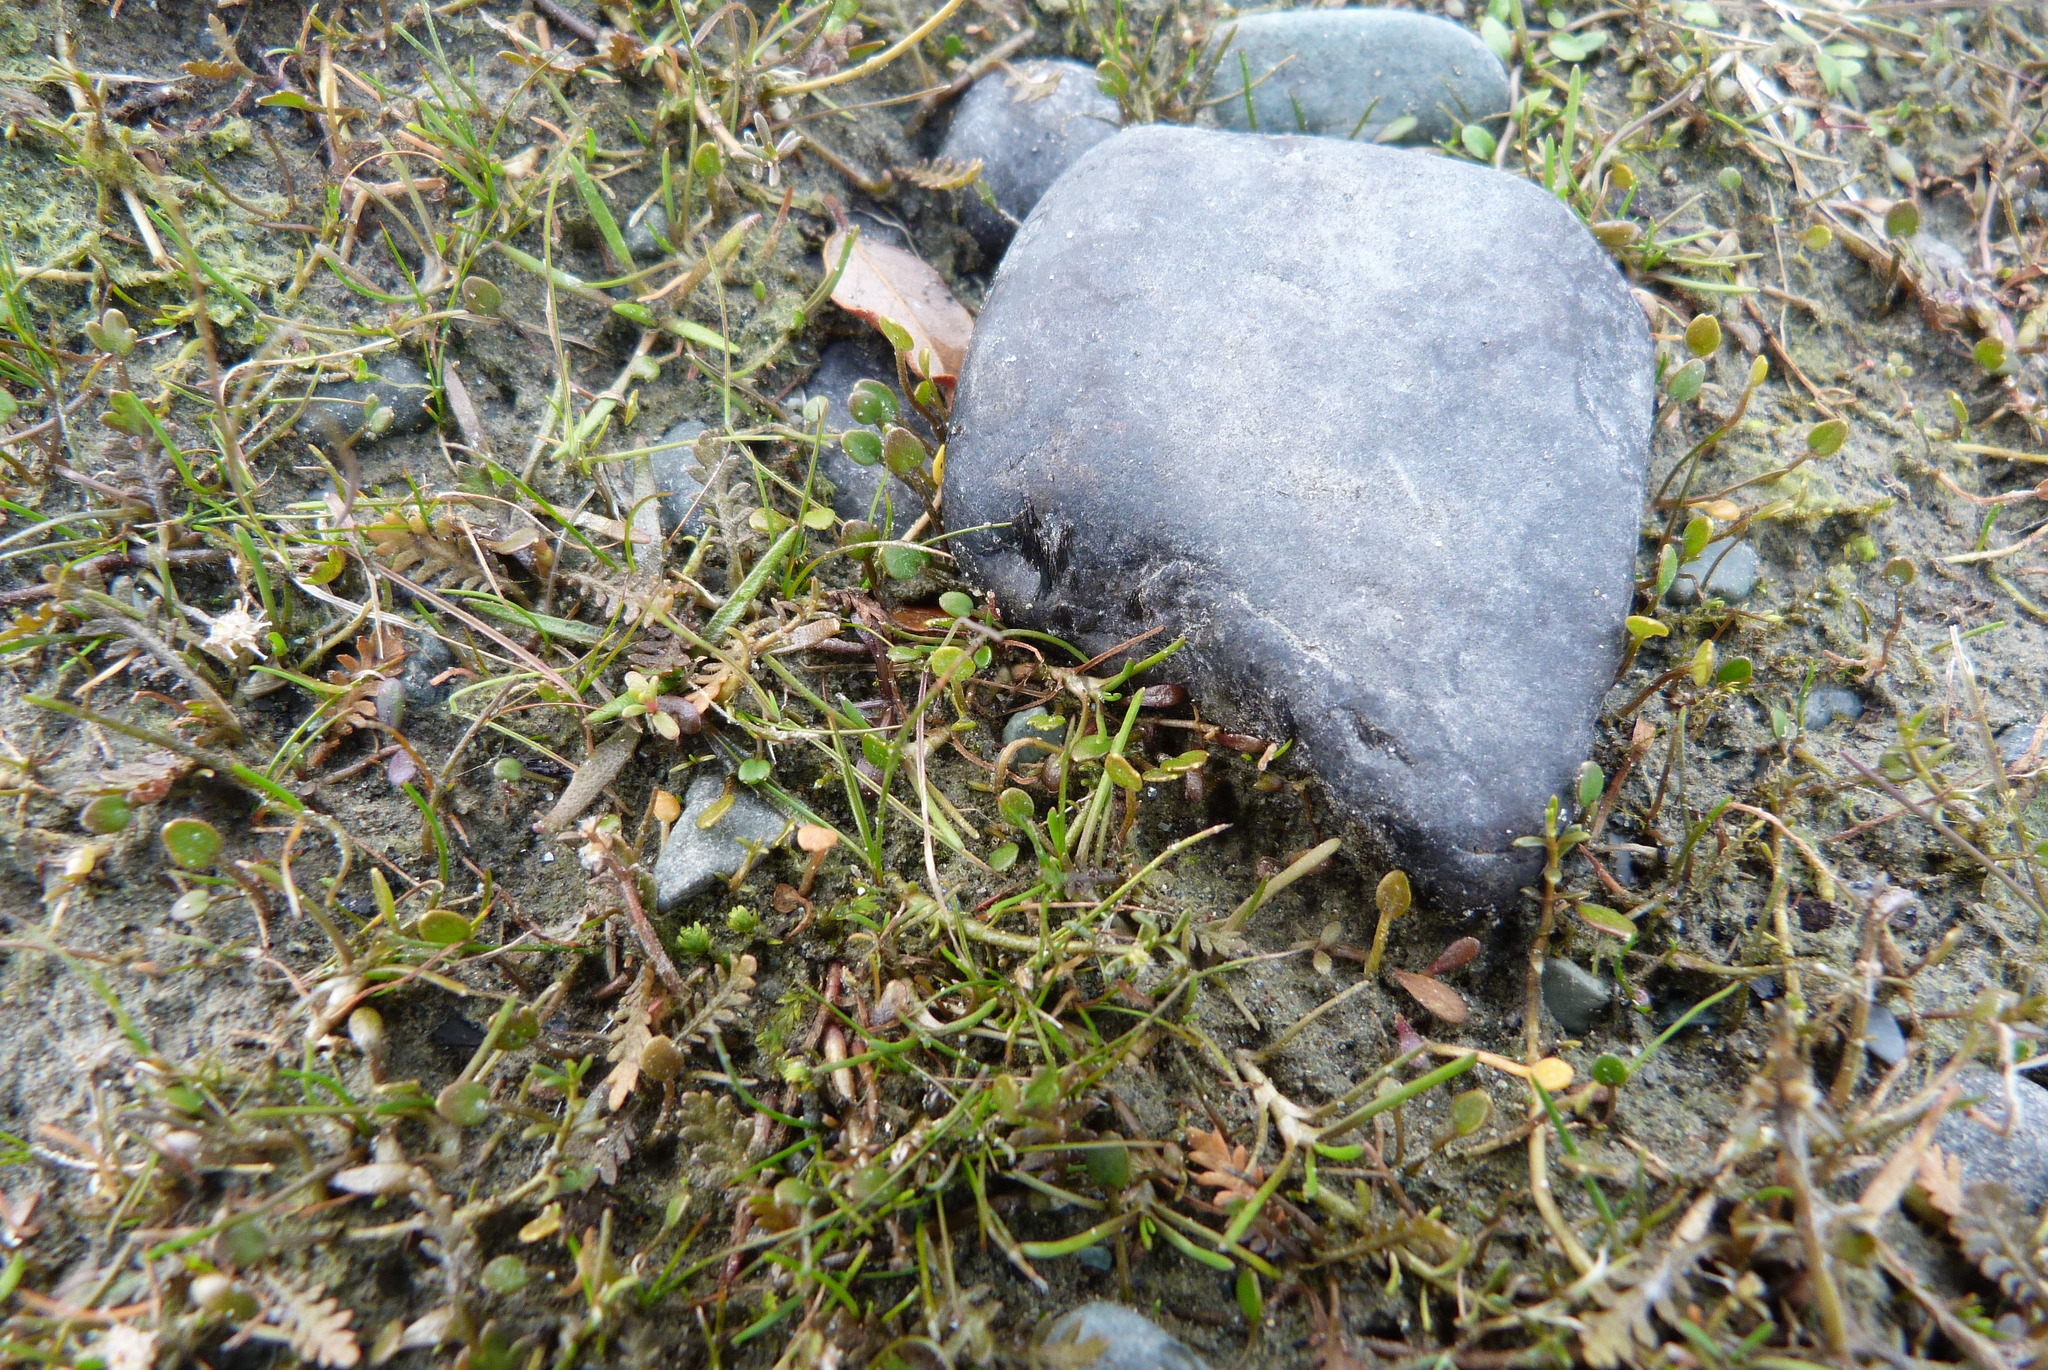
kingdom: Plantae
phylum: Tracheophyta
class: Magnoliopsida
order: Apiales
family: Apiaceae
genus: Azorella
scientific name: Azorella cockaynei
